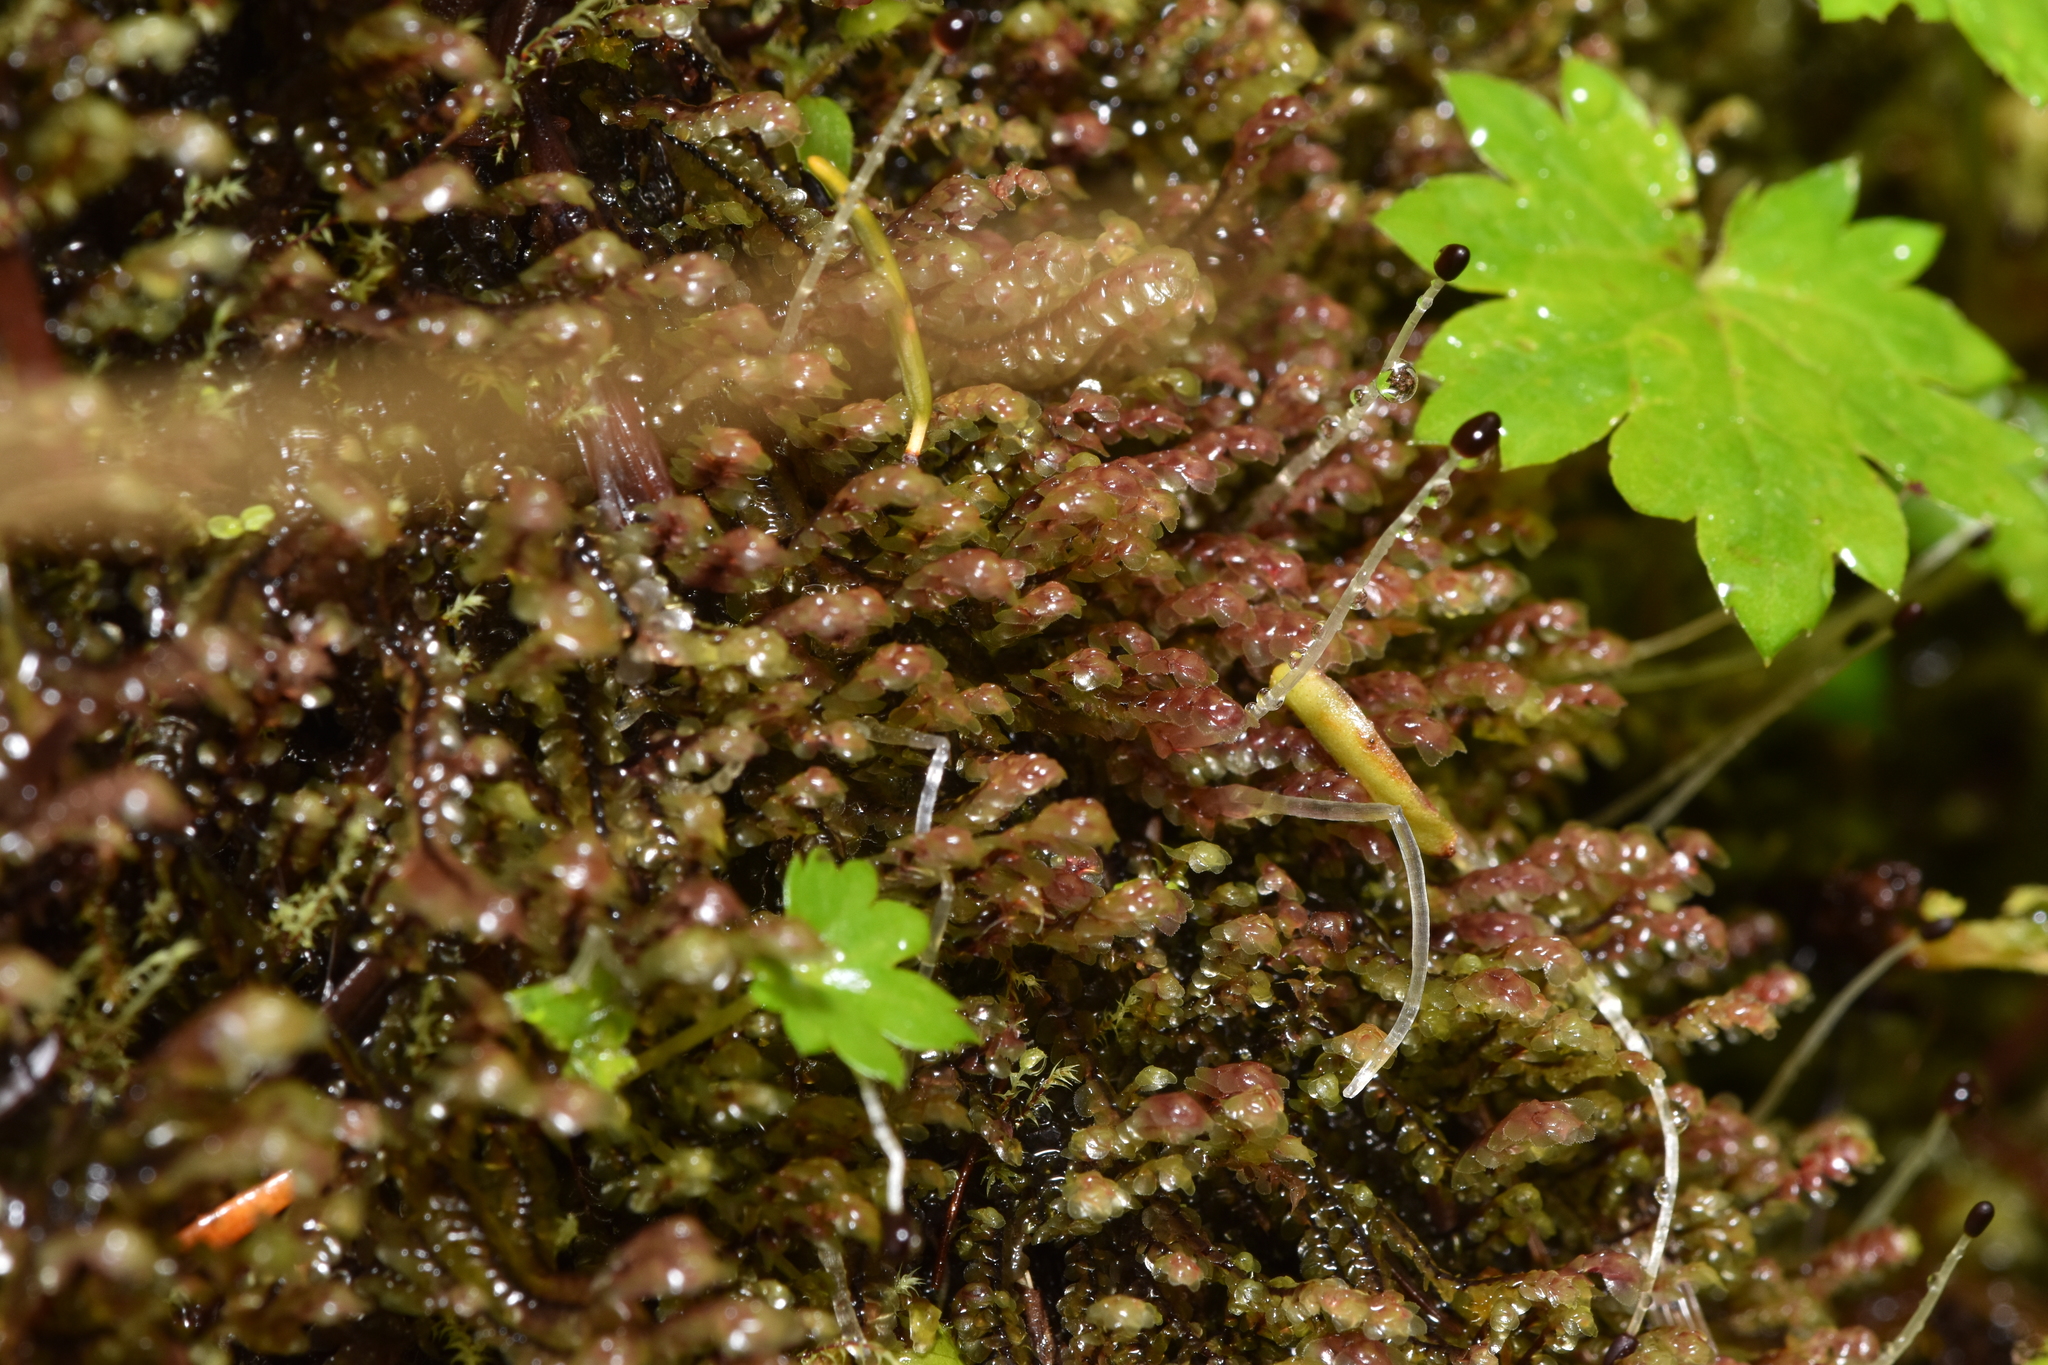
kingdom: Plantae
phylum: Marchantiophyta
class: Jungermanniopsida
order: Jungermanniales
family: Scapaniaceae
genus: Scapania
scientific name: Scapania americana
